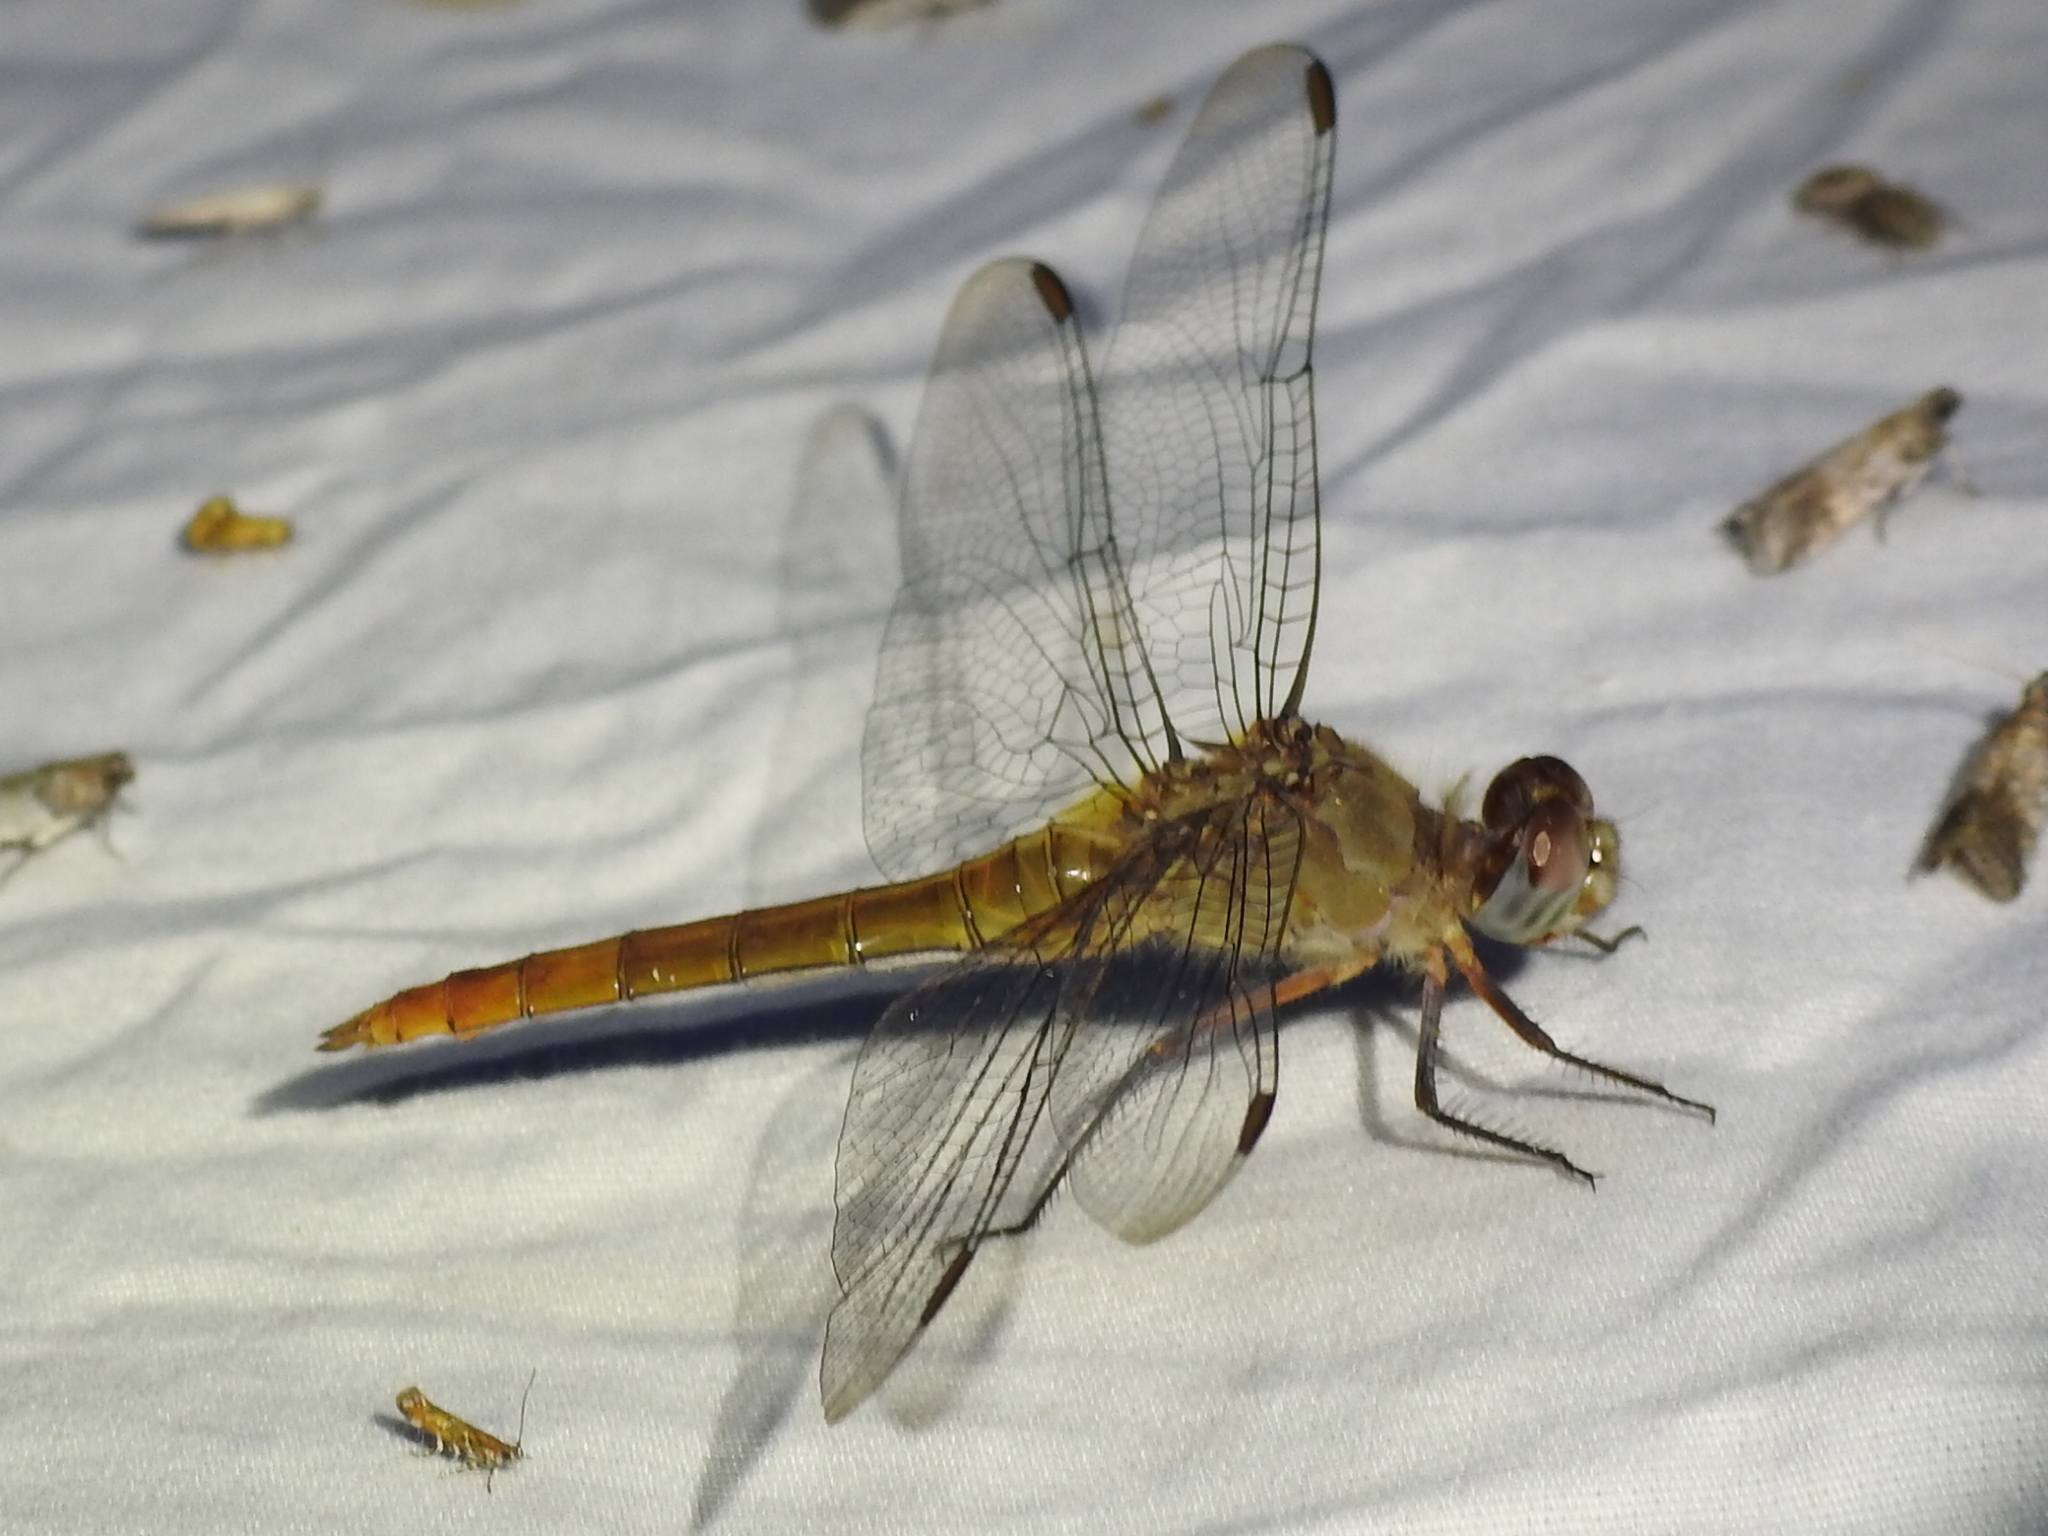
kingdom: Animalia
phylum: Arthropoda
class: Insecta
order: Odonata
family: Libellulidae
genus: Brachymesia
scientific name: Brachymesia furcata
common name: Red-taled pennant
